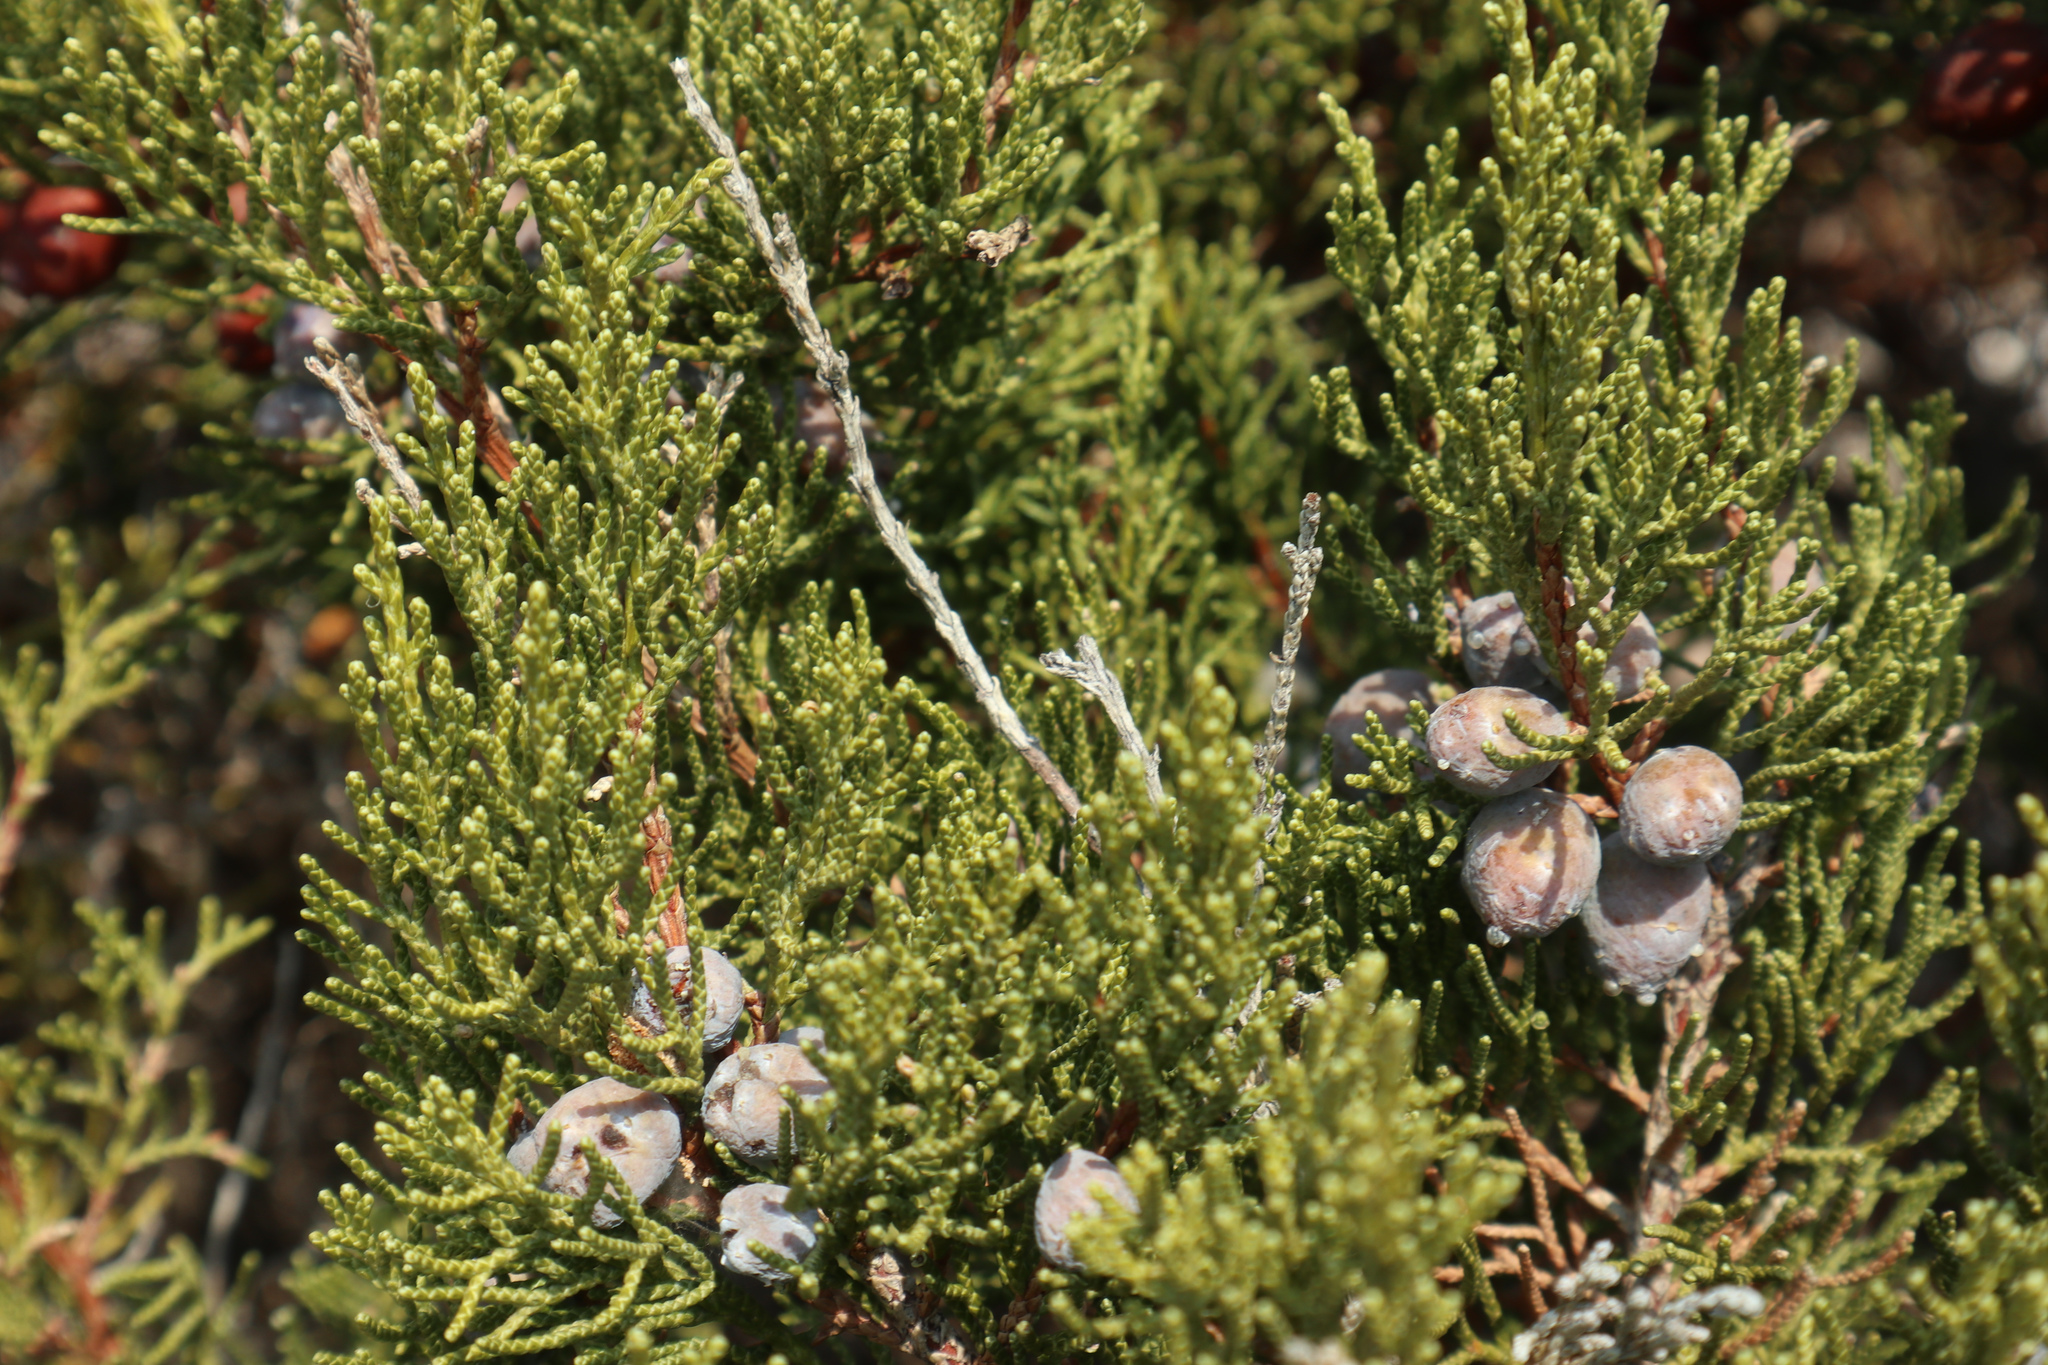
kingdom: Plantae
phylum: Tracheophyta
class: Pinopsida
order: Pinales
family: Cupressaceae
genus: Juniperus
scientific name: Juniperus phoenicea
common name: Phoenician juniper
